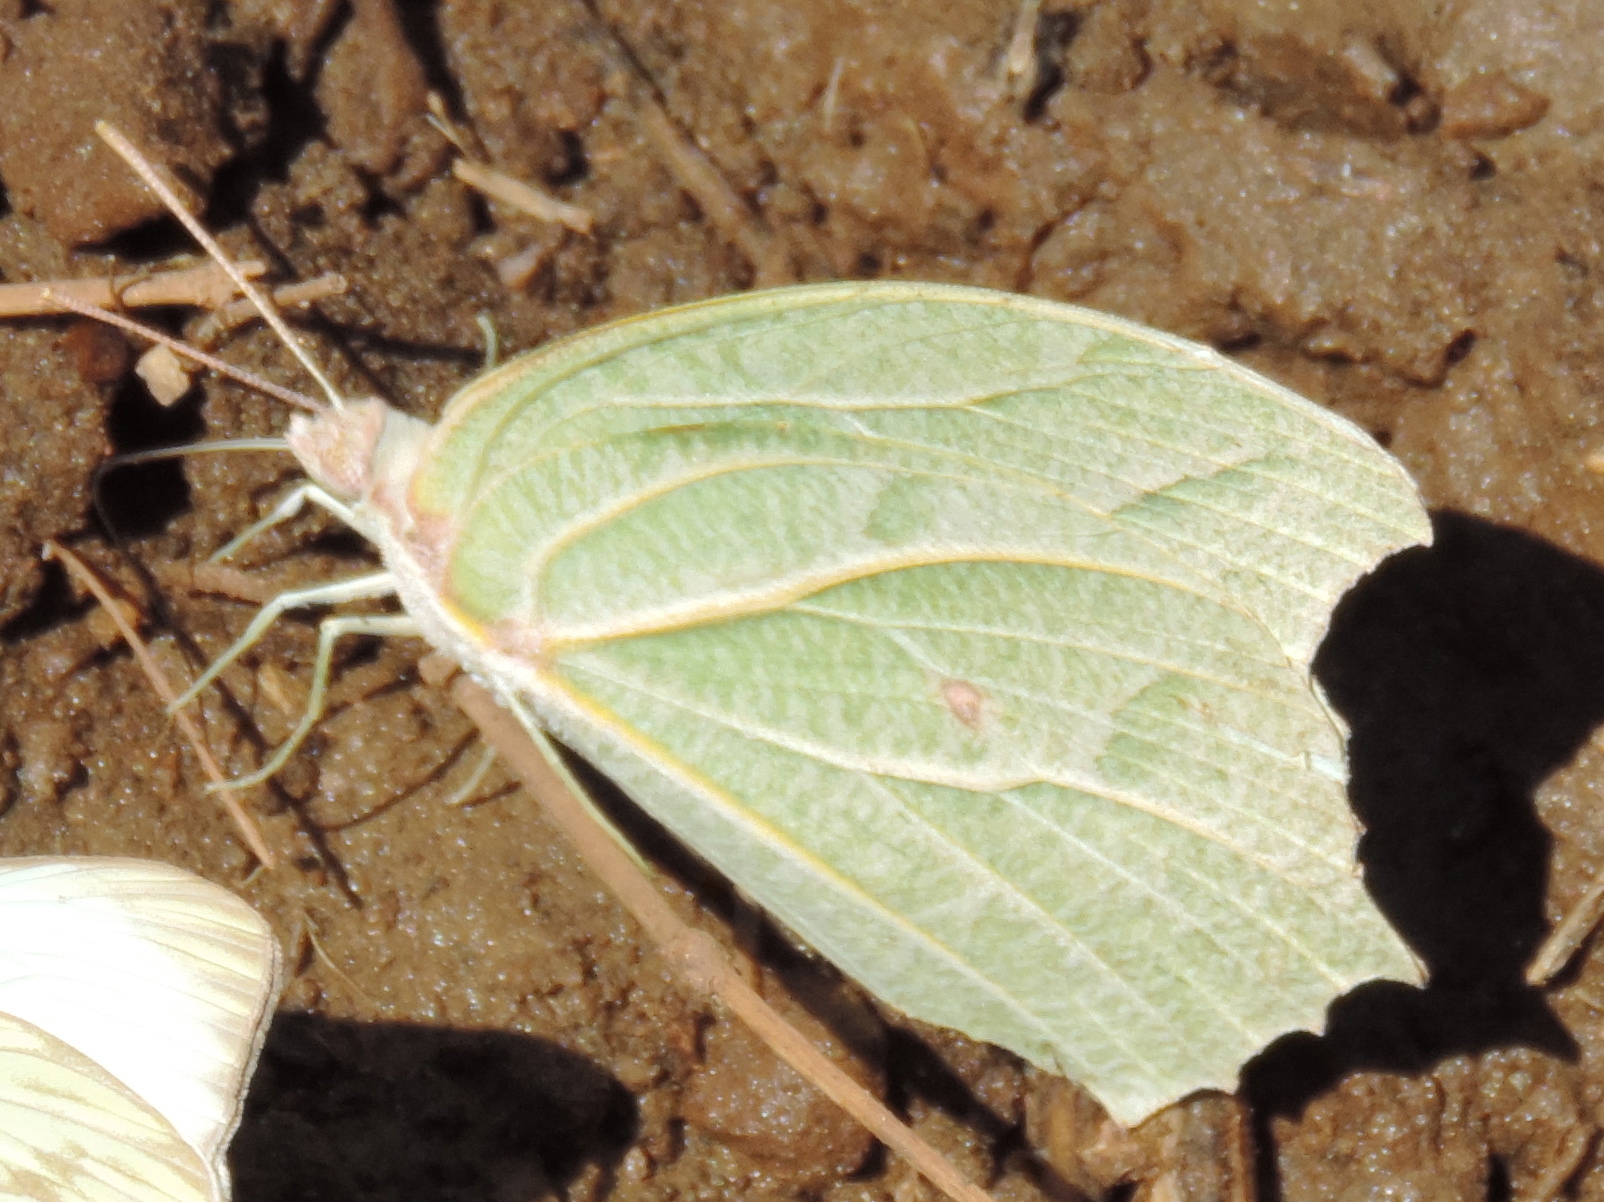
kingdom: Animalia
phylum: Arthropoda
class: Insecta
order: Lepidoptera
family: Pieridae
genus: Anteos
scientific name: Anteos clorinde
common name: White angled sulphur
